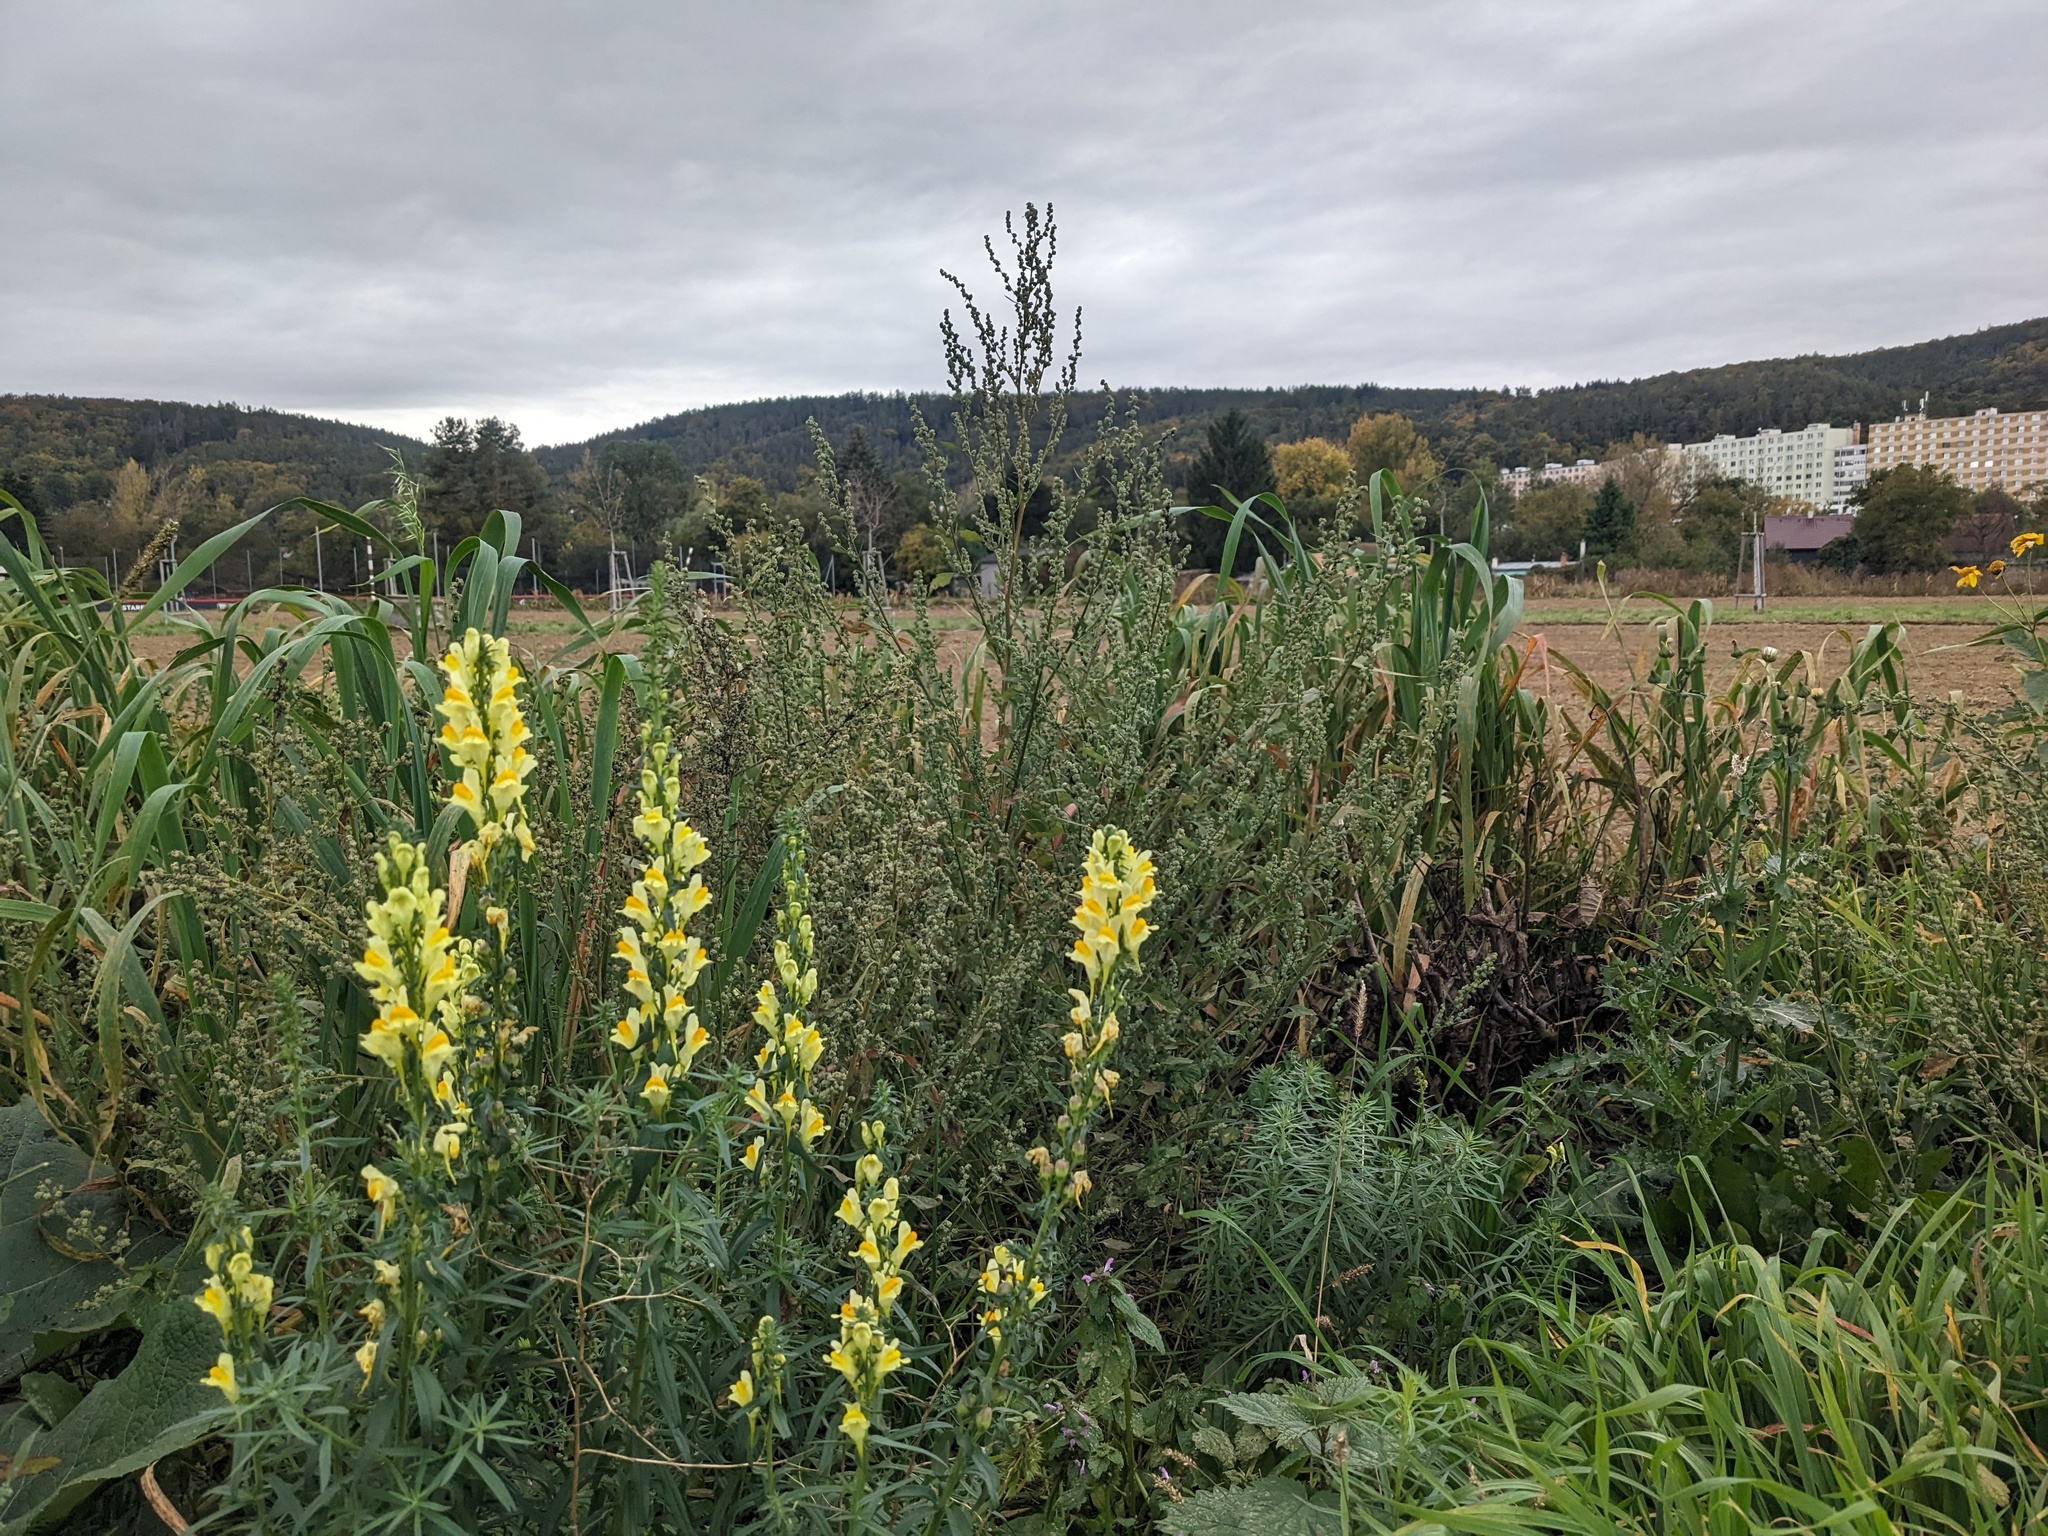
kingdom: Plantae
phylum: Tracheophyta
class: Magnoliopsida
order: Lamiales
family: Plantaginaceae
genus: Linaria
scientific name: Linaria vulgaris
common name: Butter and eggs
